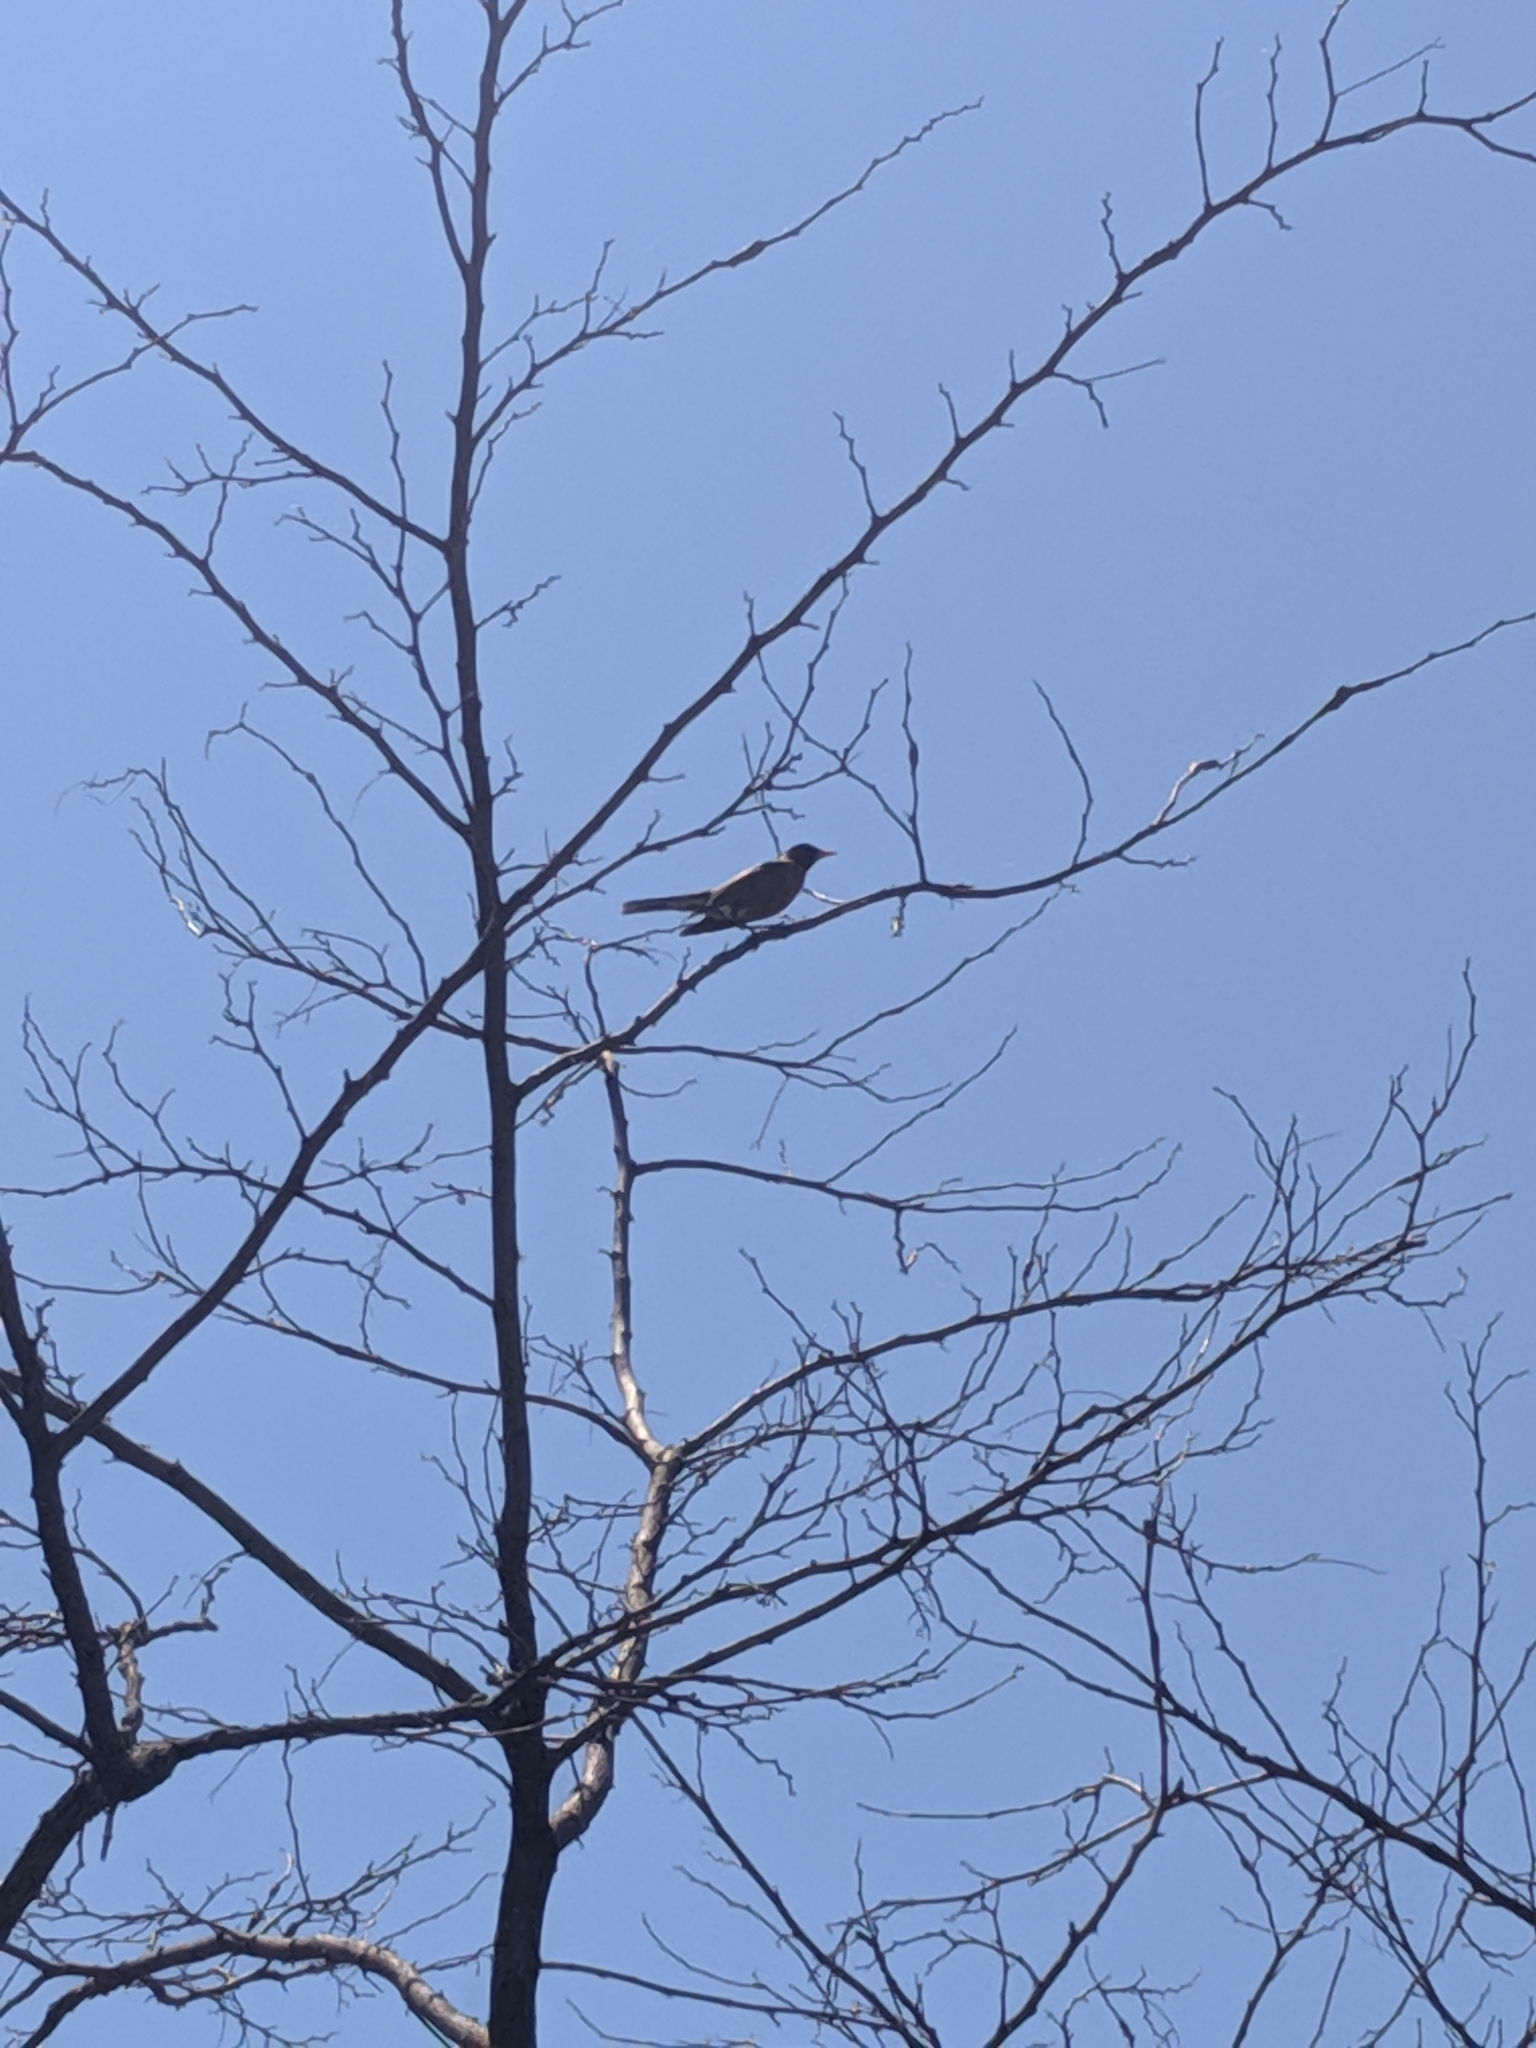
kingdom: Animalia
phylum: Chordata
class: Aves
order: Passeriformes
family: Turdidae
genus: Turdus
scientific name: Turdus migratorius
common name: American robin
